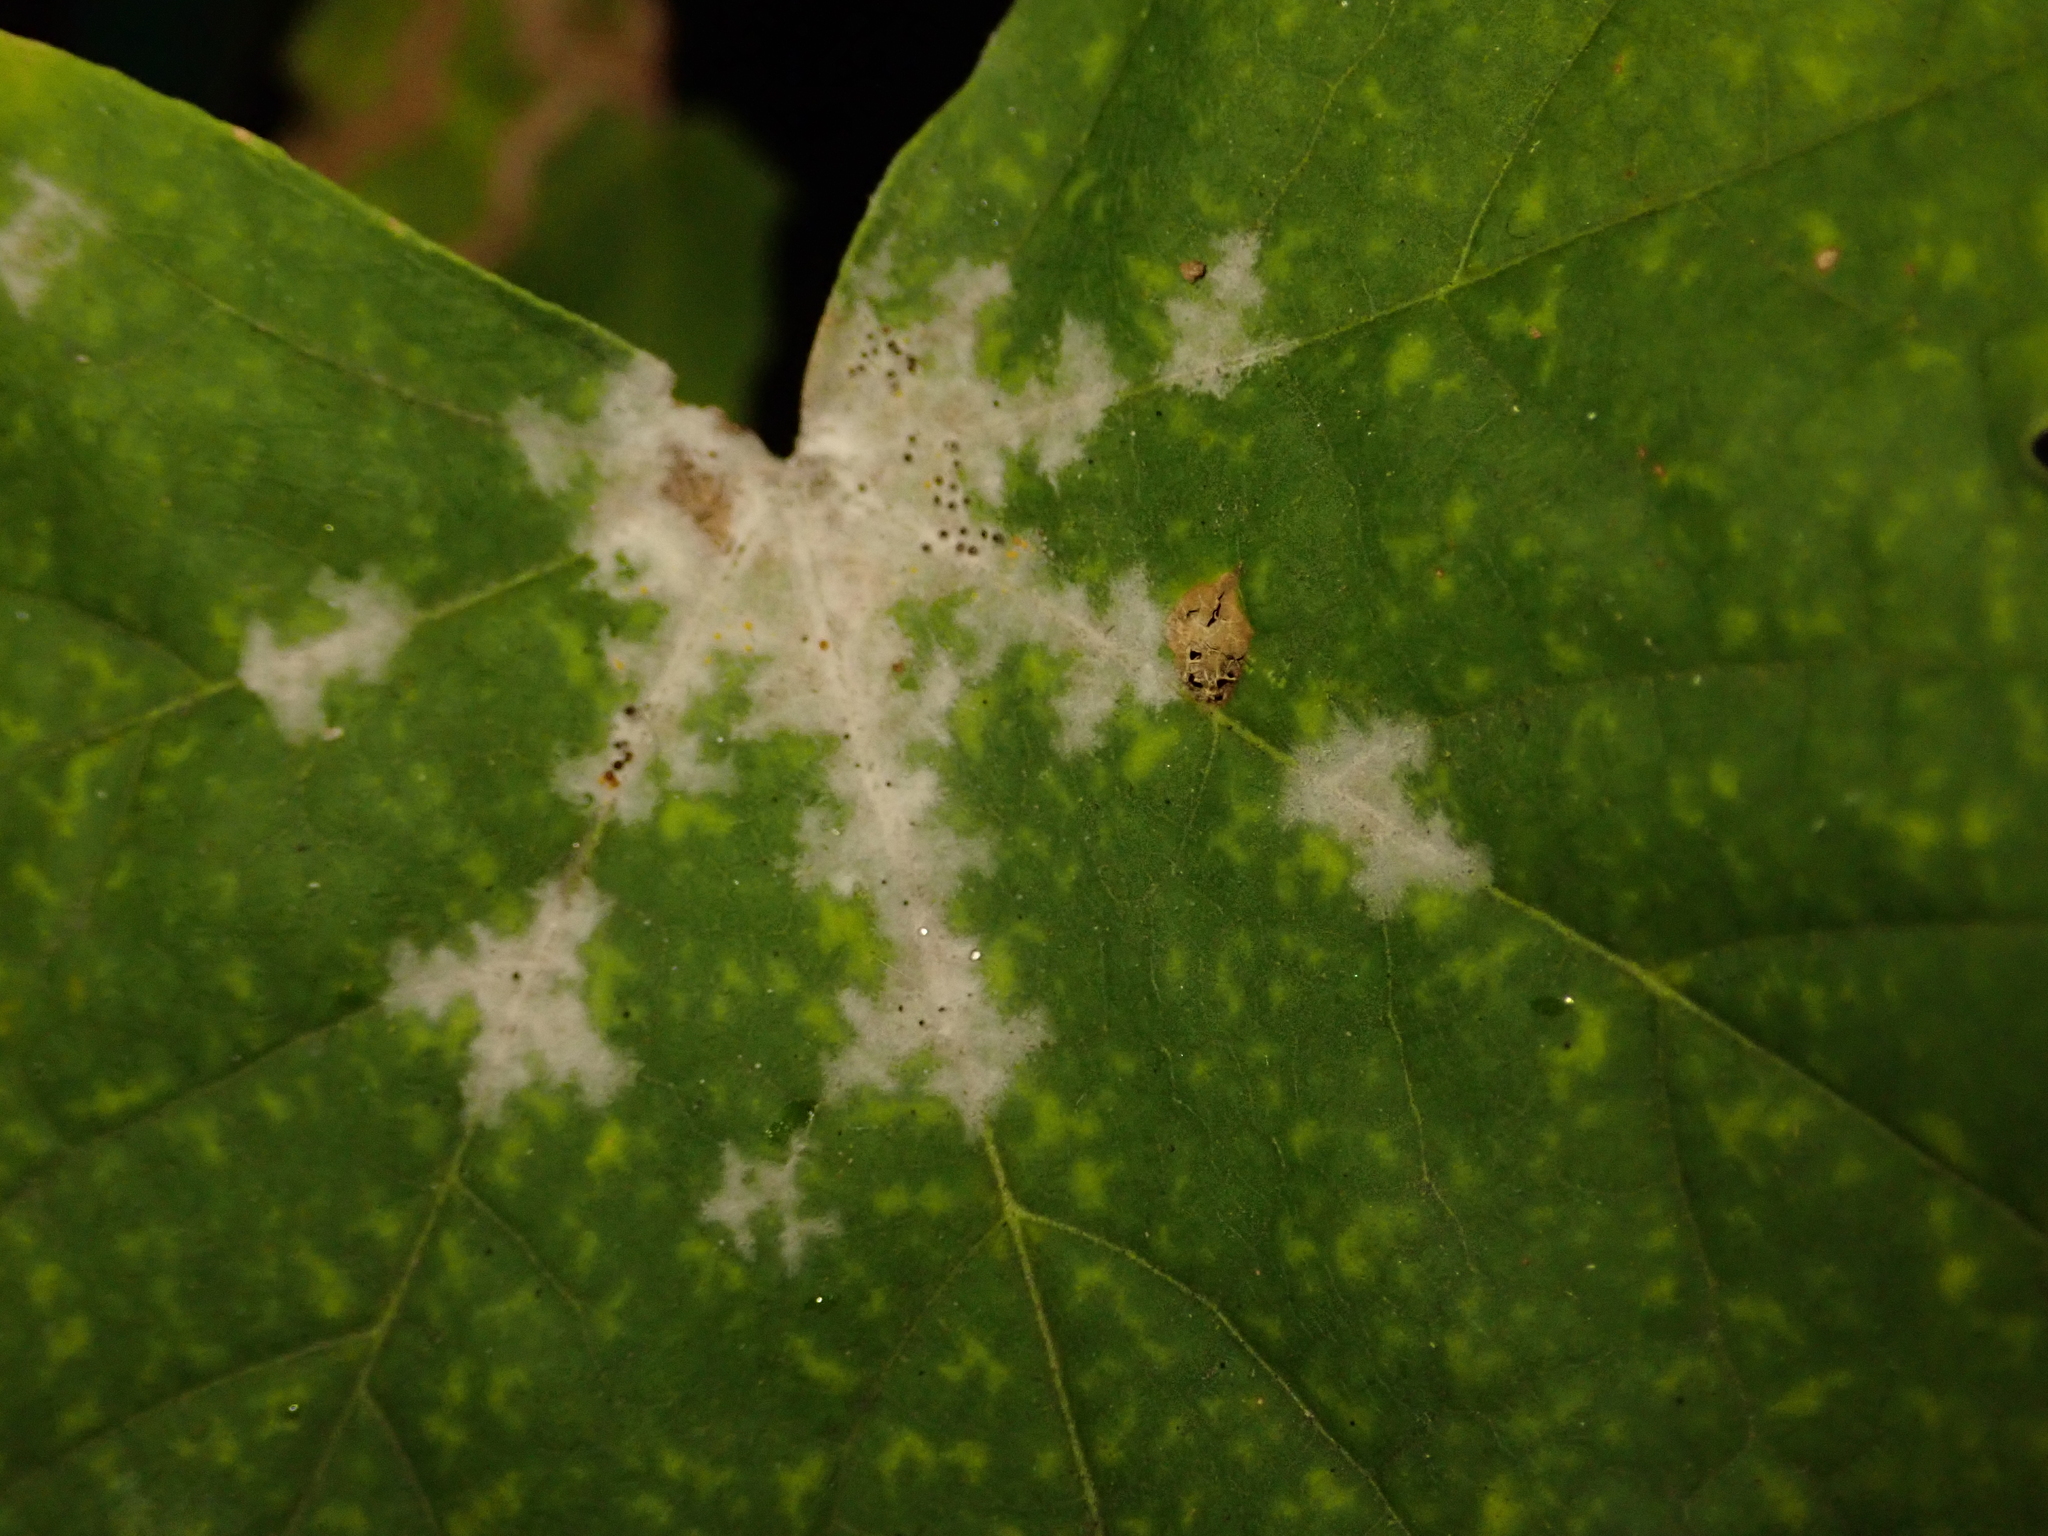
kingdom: Fungi
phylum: Ascomycota
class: Leotiomycetes
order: Helotiales
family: Erysiphaceae
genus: Sawadaea
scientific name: Sawadaea tulasnei
